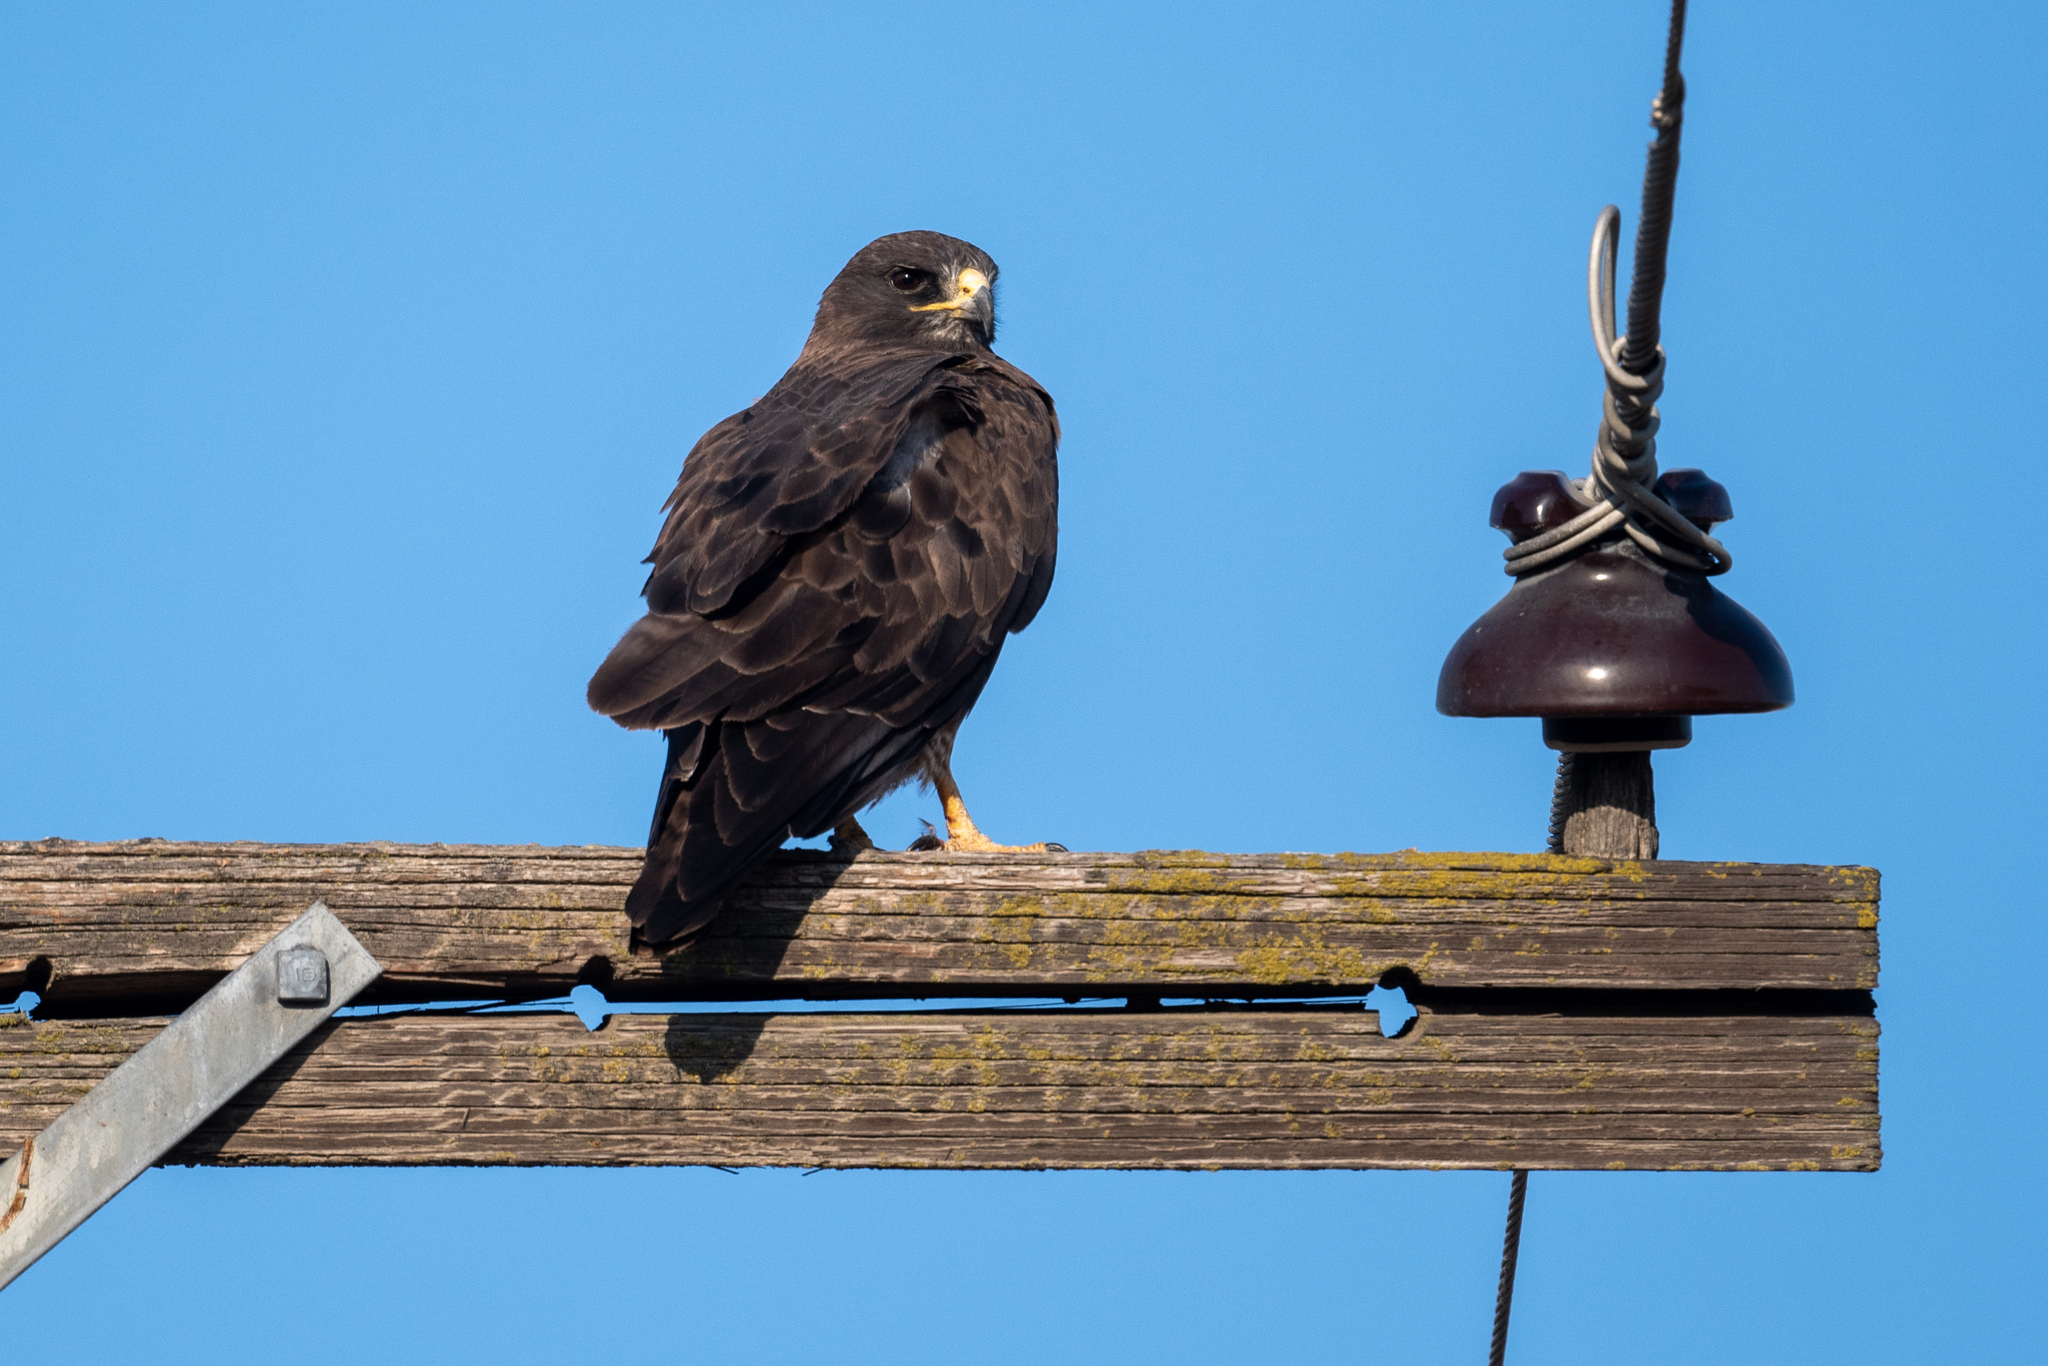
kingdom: Animalia
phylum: Chordata
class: Aves
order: Accipitriformes
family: Accipitridae
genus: Buteo
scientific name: Buteo swainsoni
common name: Swainson's hawk
